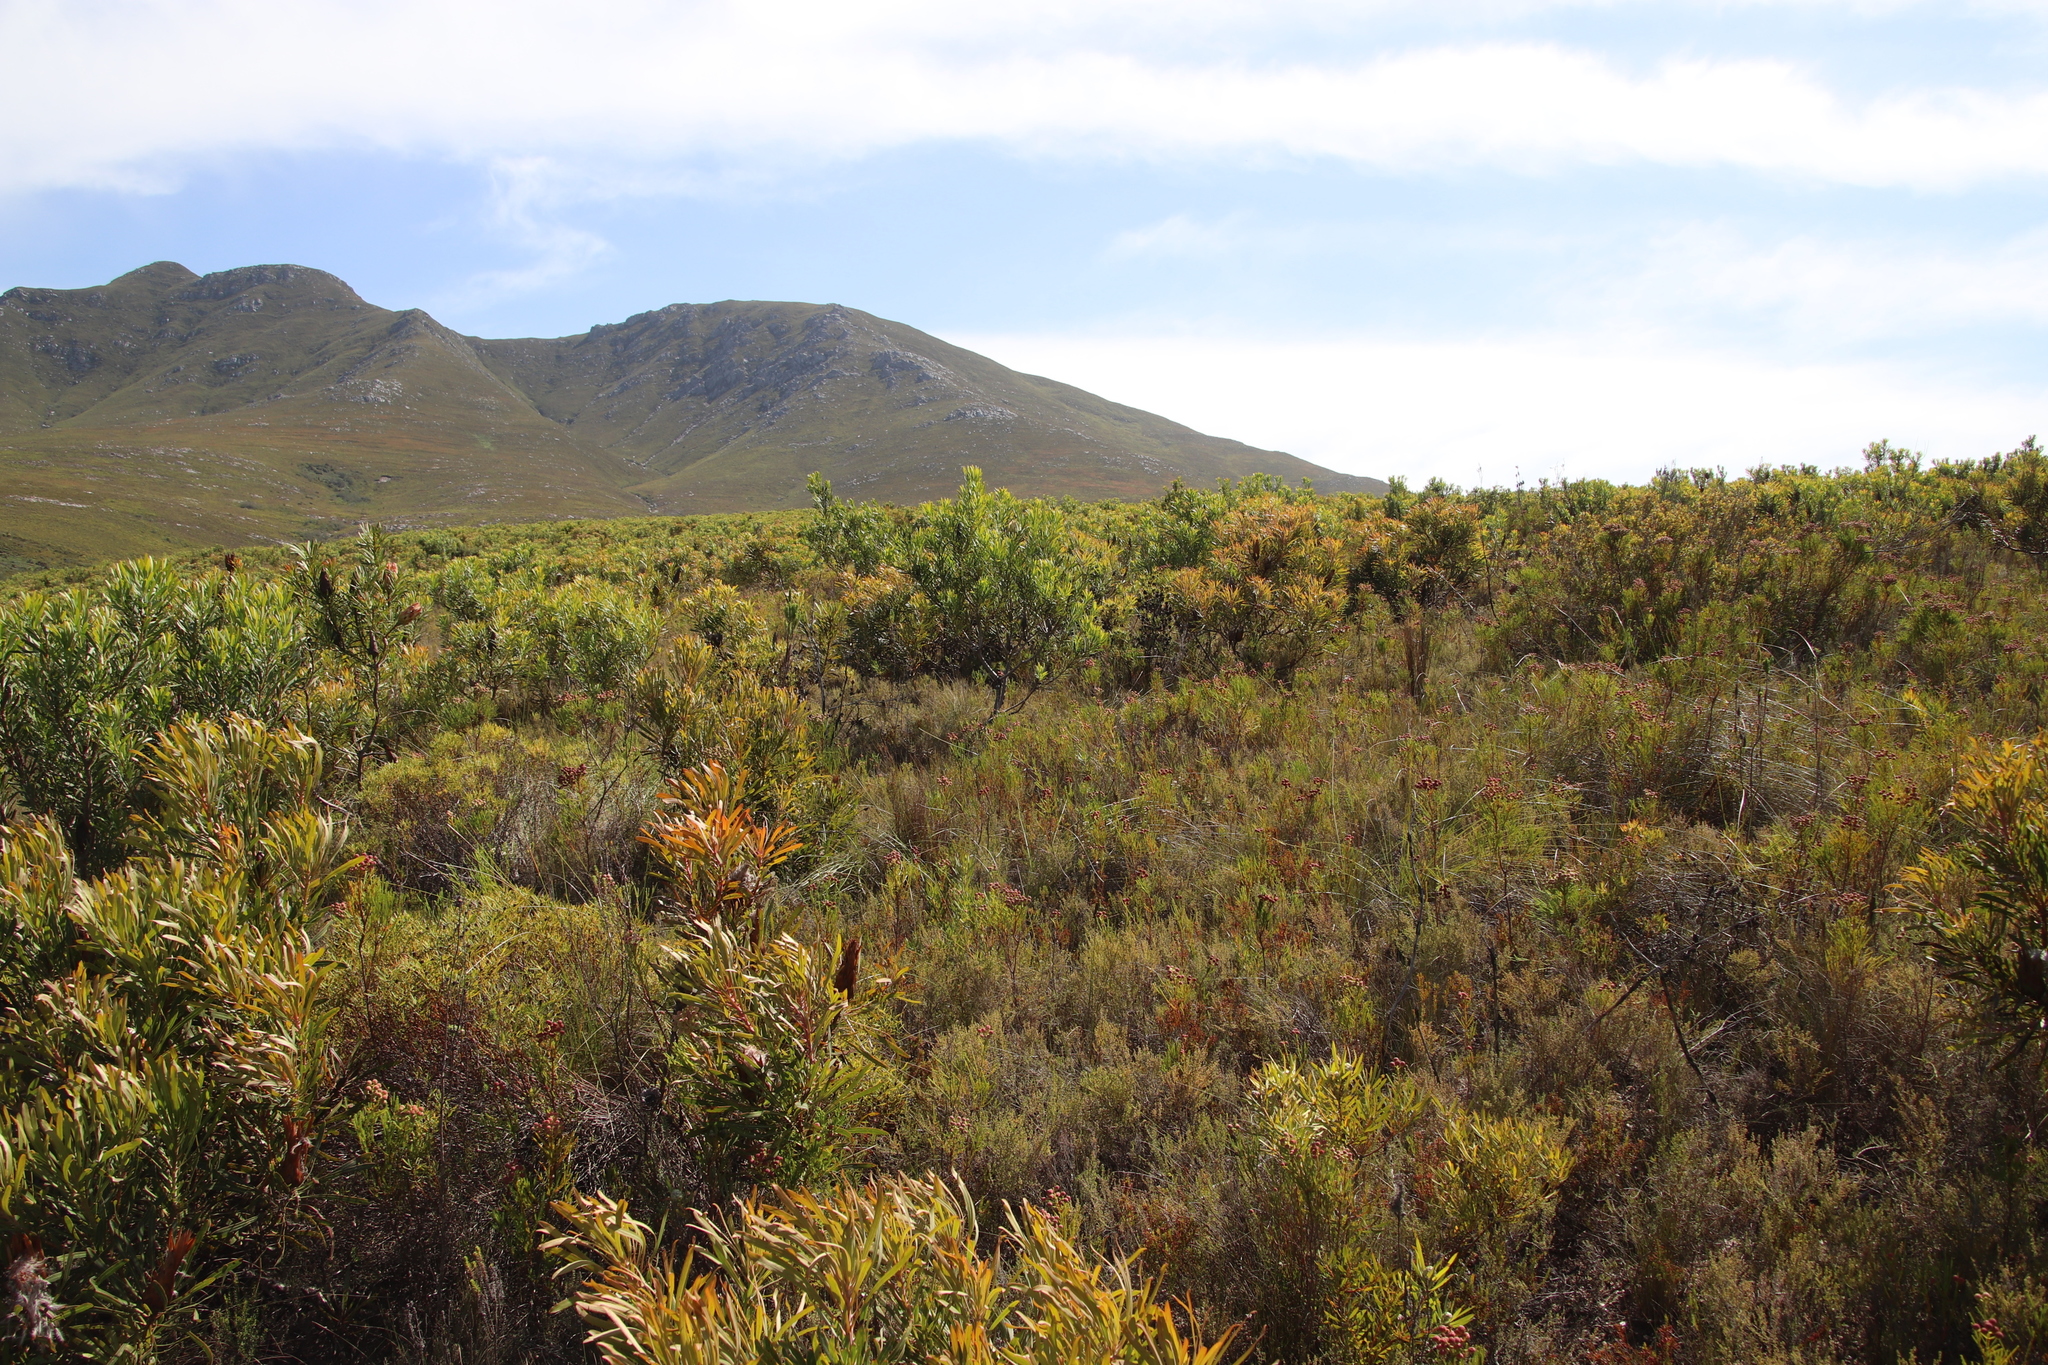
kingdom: Plantae
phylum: Tracheophyta
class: Magnoliopsida
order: Proteales
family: Proteaceae
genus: Protea
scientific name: Protea longifolia
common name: Long-leaf sugarbush
